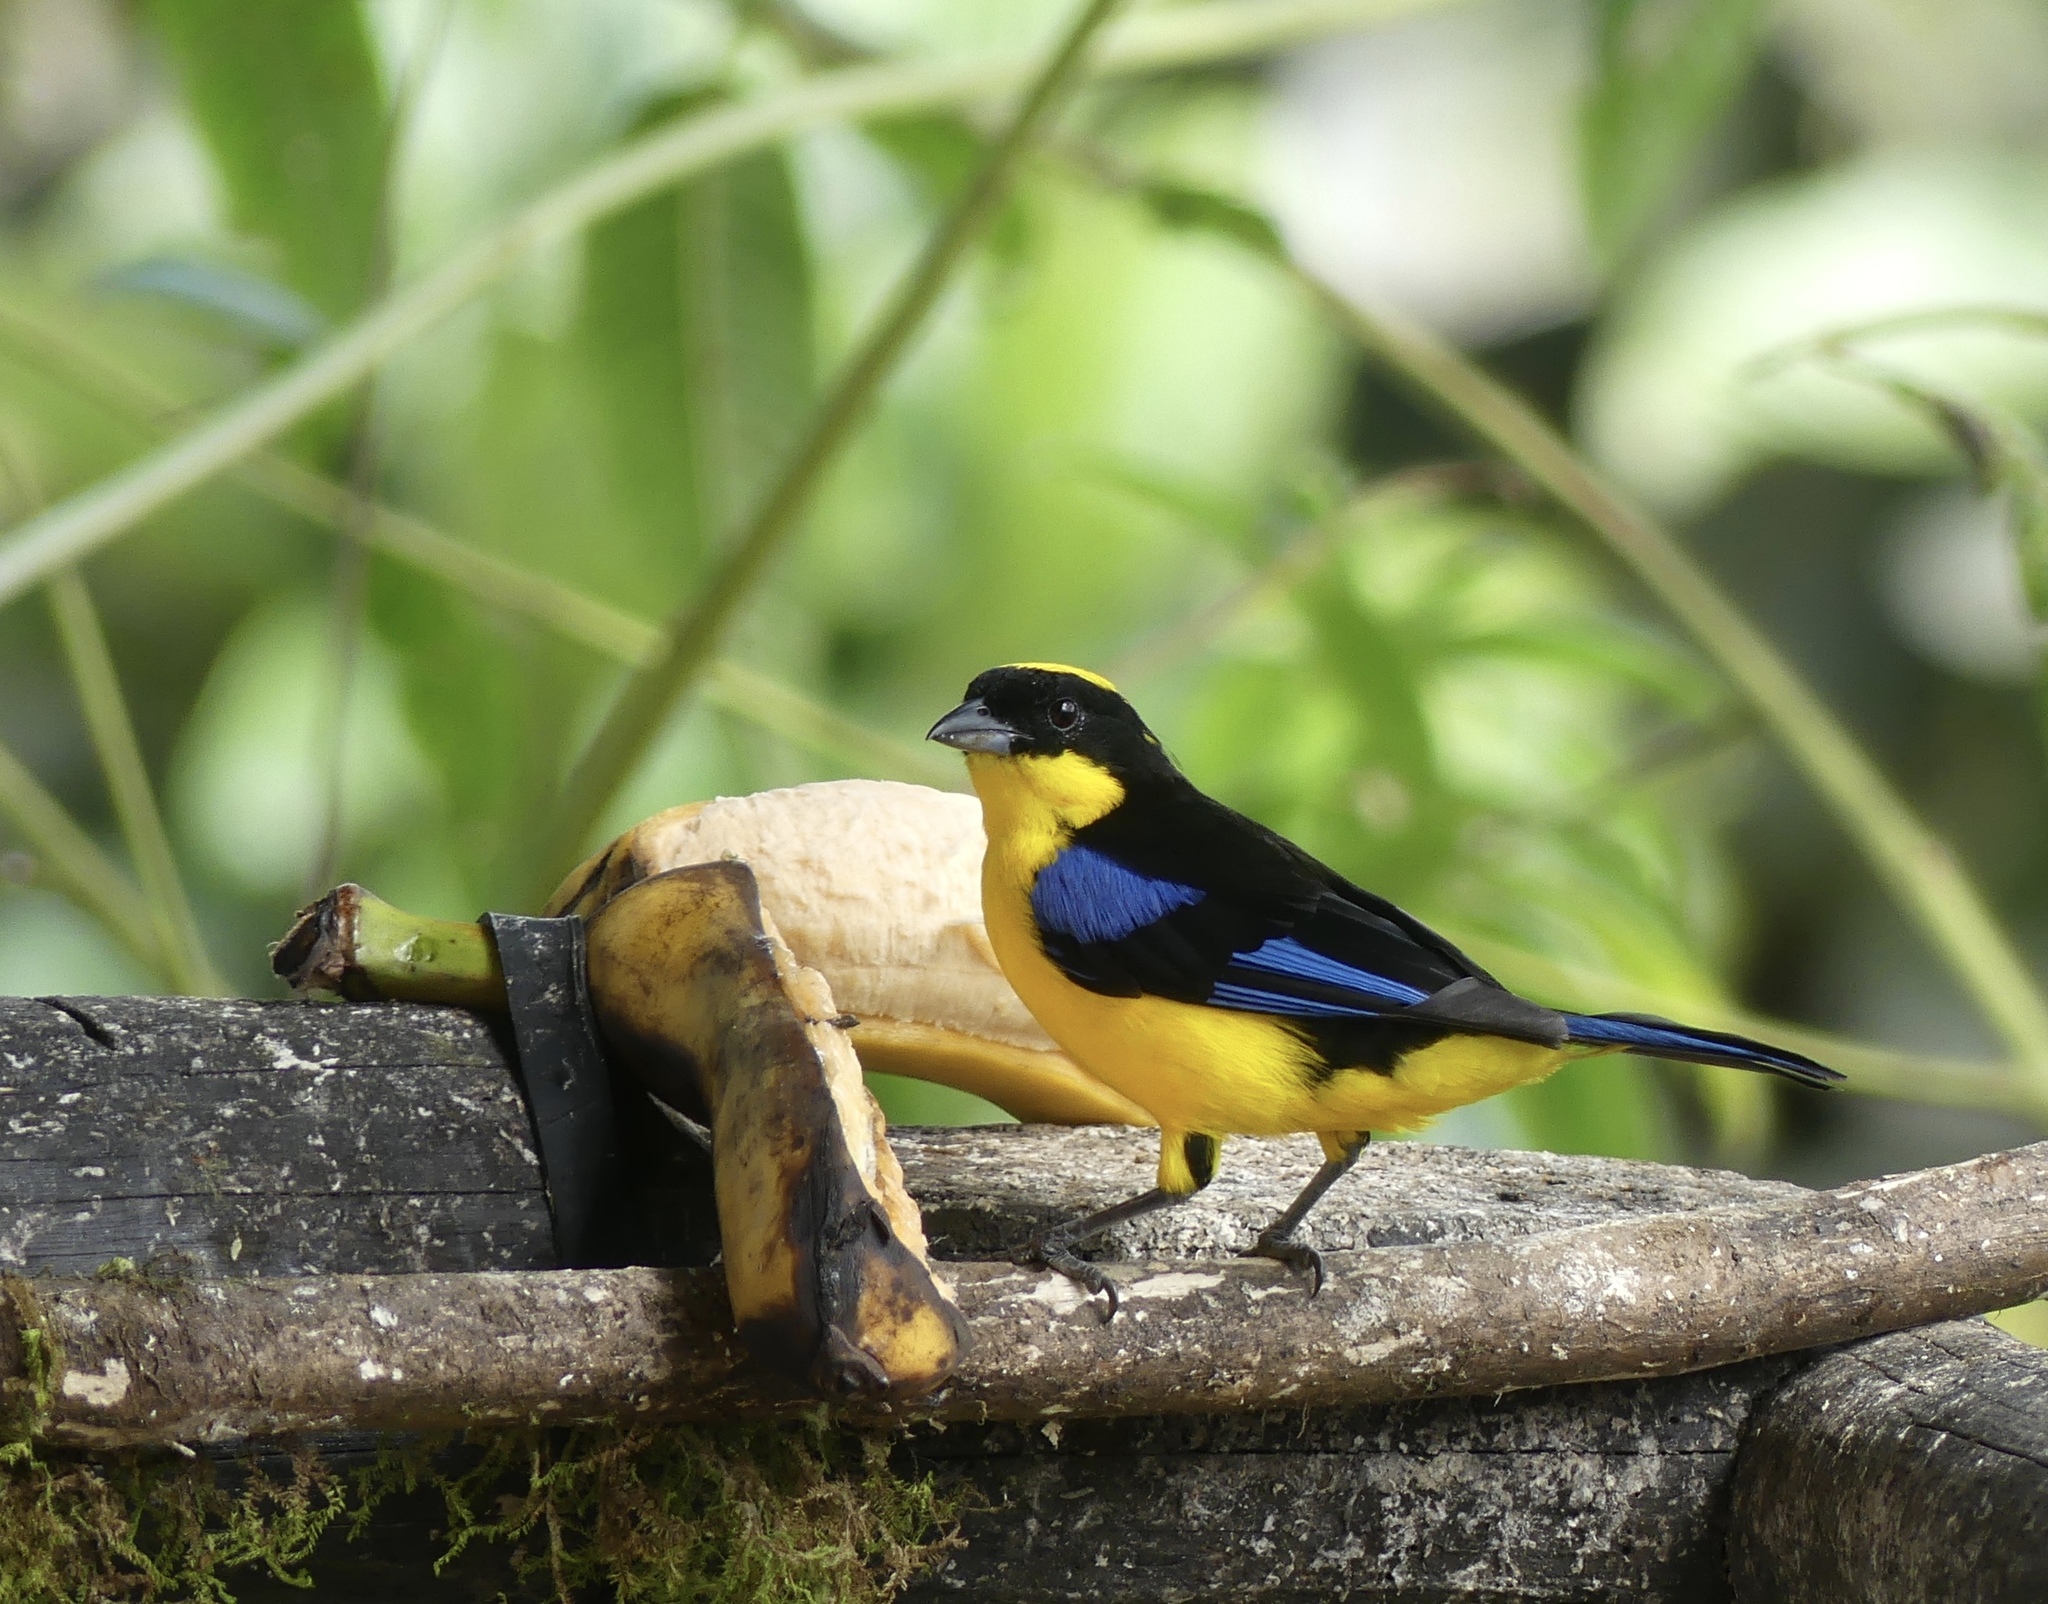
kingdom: Animalia
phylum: Chordata
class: Aves
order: Passeriformes
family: Thraupidae
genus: Anisognathus
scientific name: Anisognathus somptuosus
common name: Blue-winged mountain-tanager
